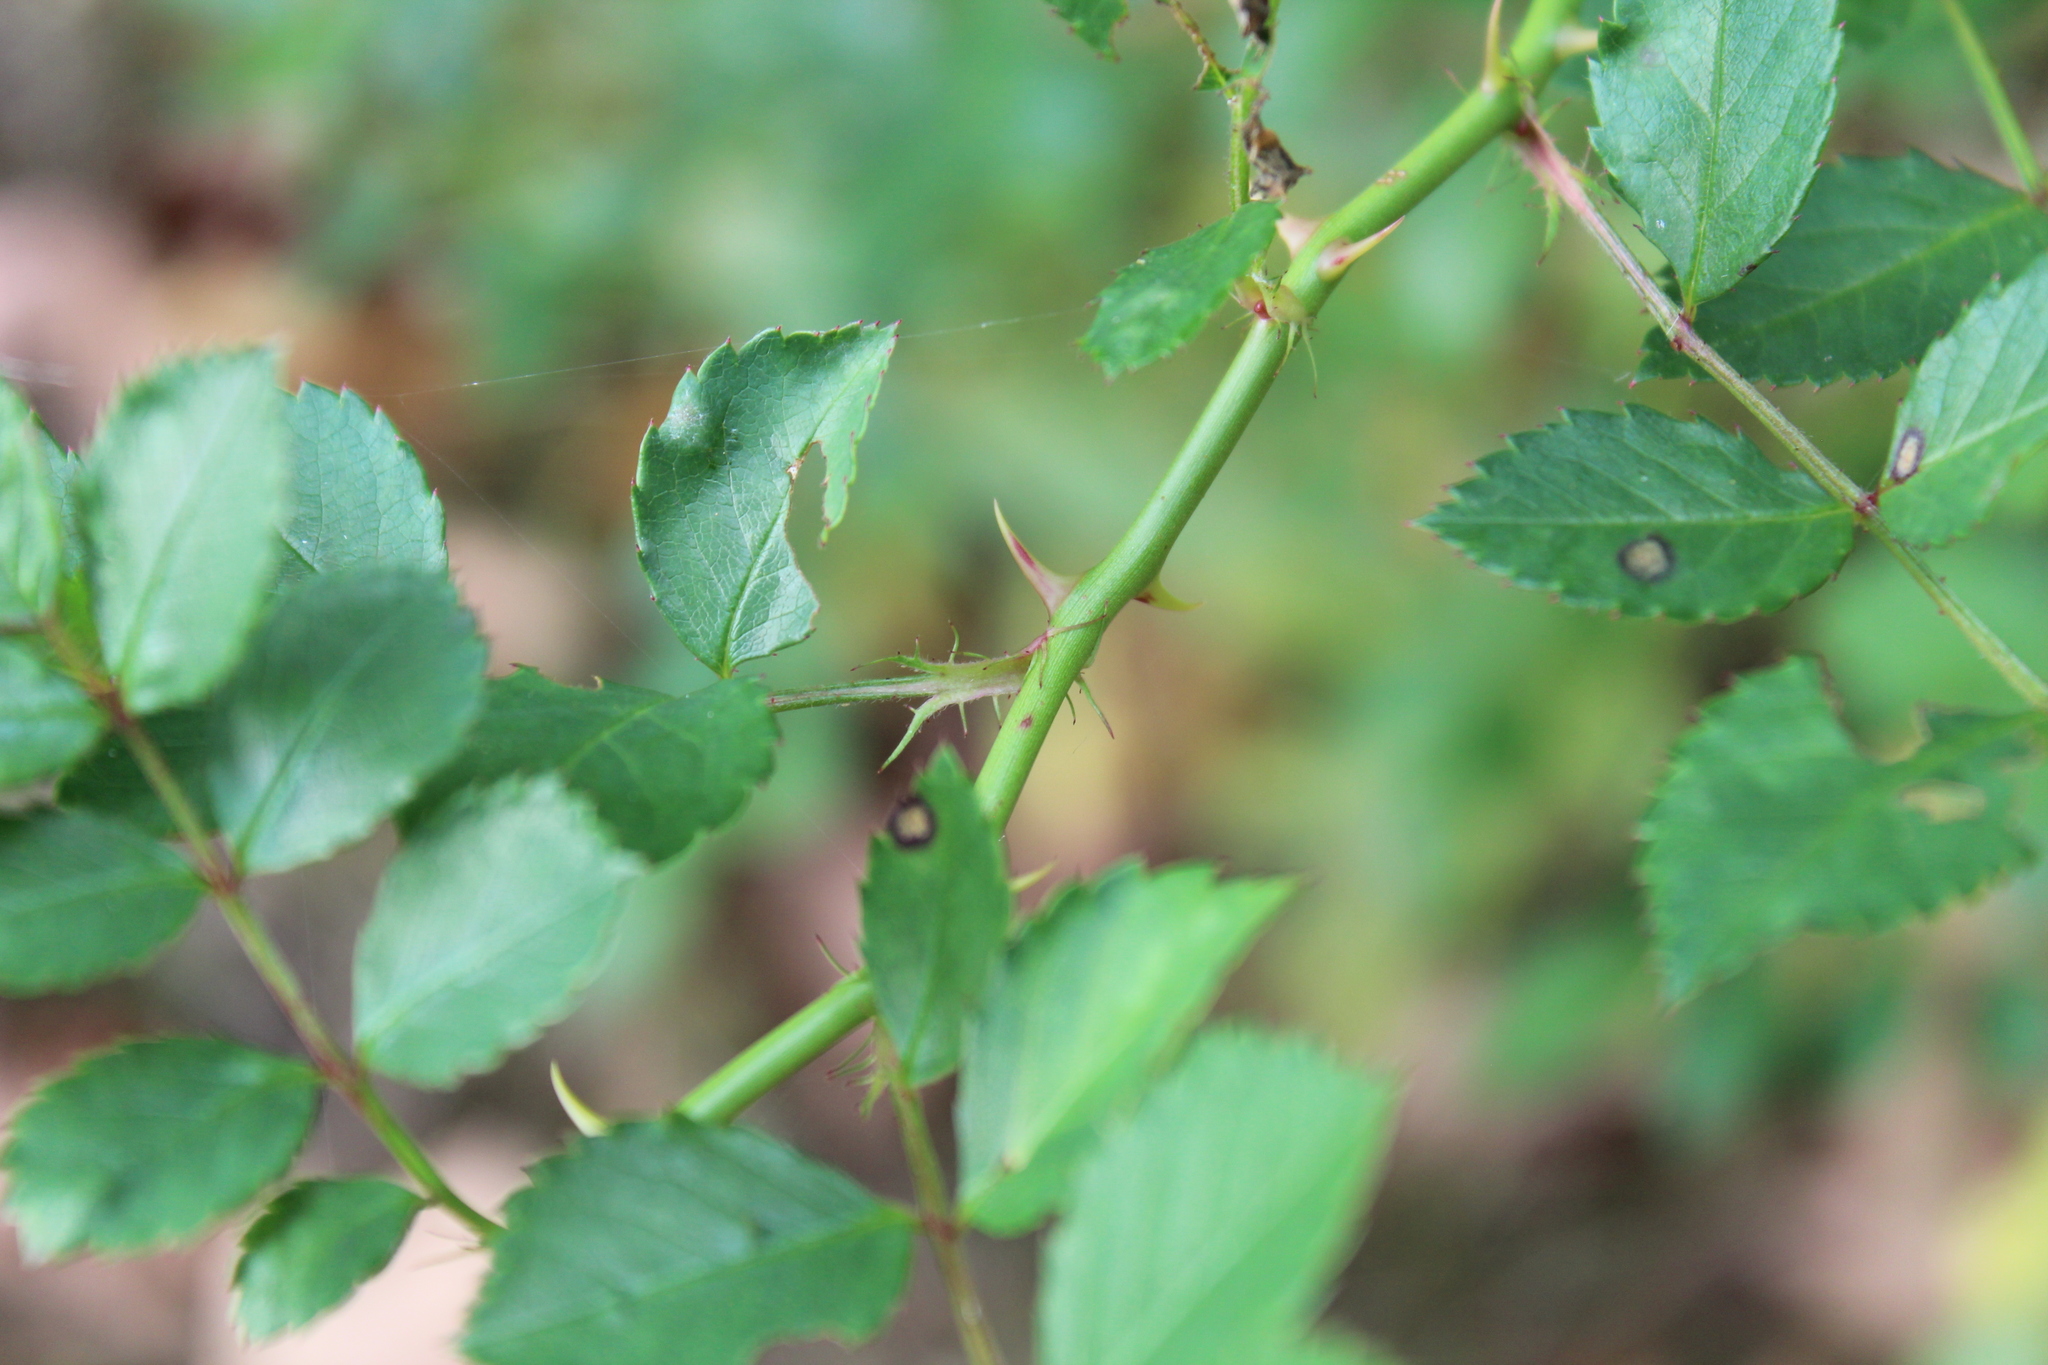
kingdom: Plantae
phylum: Tracheophyta
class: Magnoliopsida
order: Rosales
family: Rosaceae
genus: Rosa
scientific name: Rosa multiflora
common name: Multiflora rose
